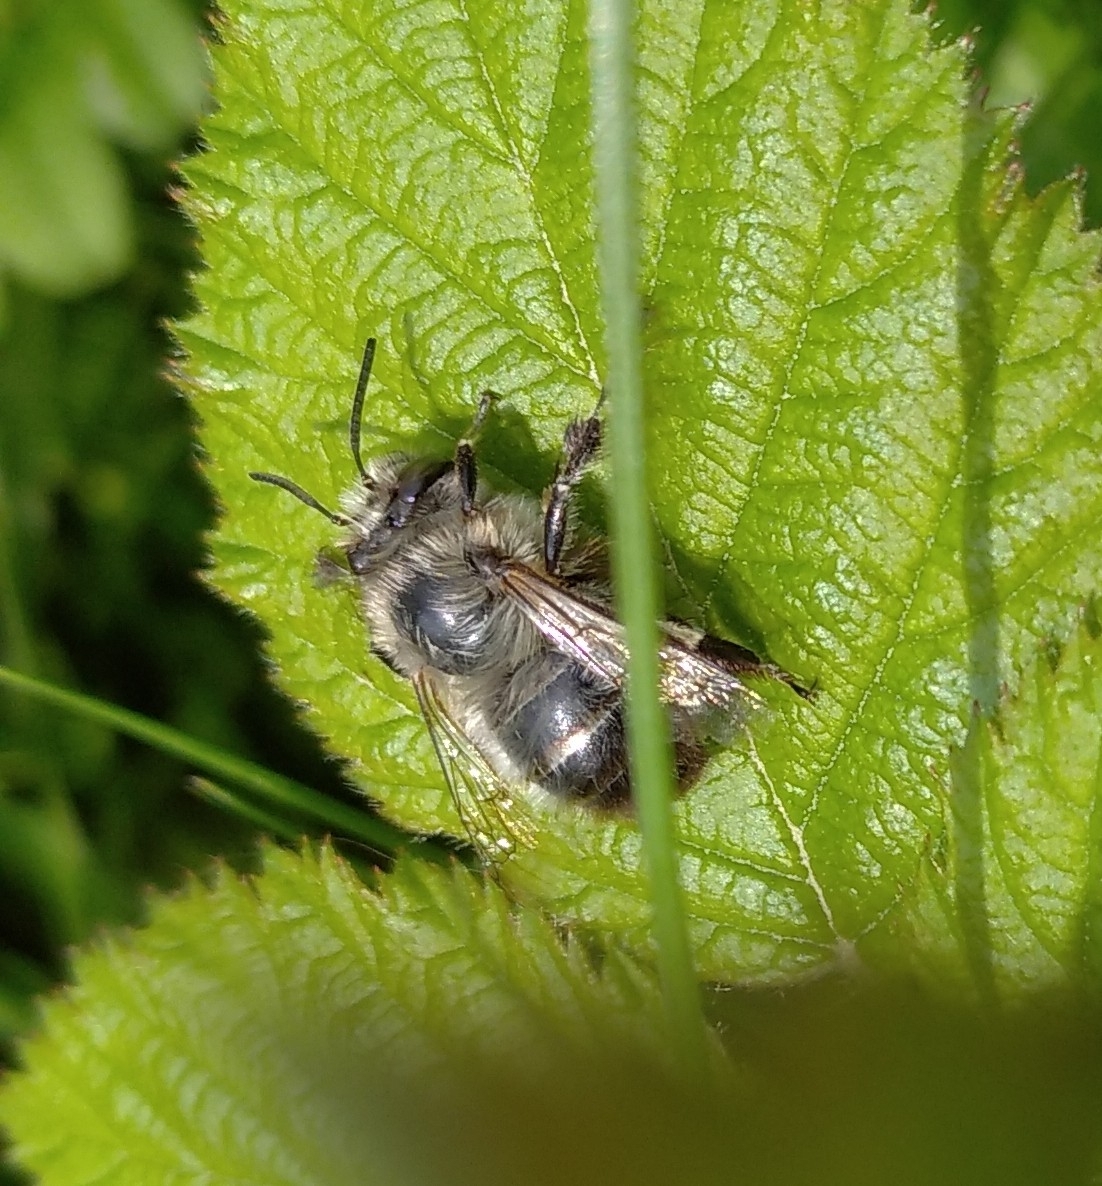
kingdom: Animalia
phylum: Arthropoda
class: Insecta
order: Hymenoptera
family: Apidae
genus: Anthophora
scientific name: Anthophora plumipes
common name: Hairy-footed flower bee
